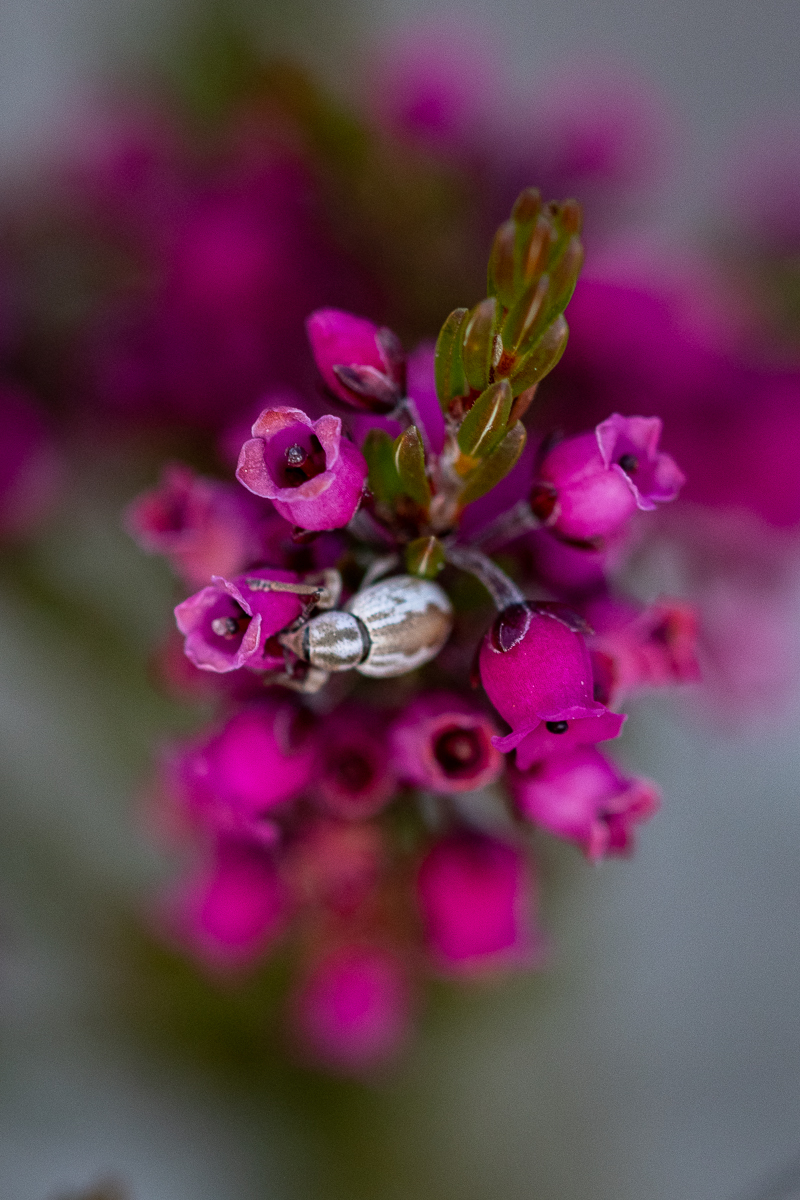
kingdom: Plantae
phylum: Tracheophyta
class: Magnoliopsida
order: Ericales
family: Ericaceae
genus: Erica
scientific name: Erica pulchella
